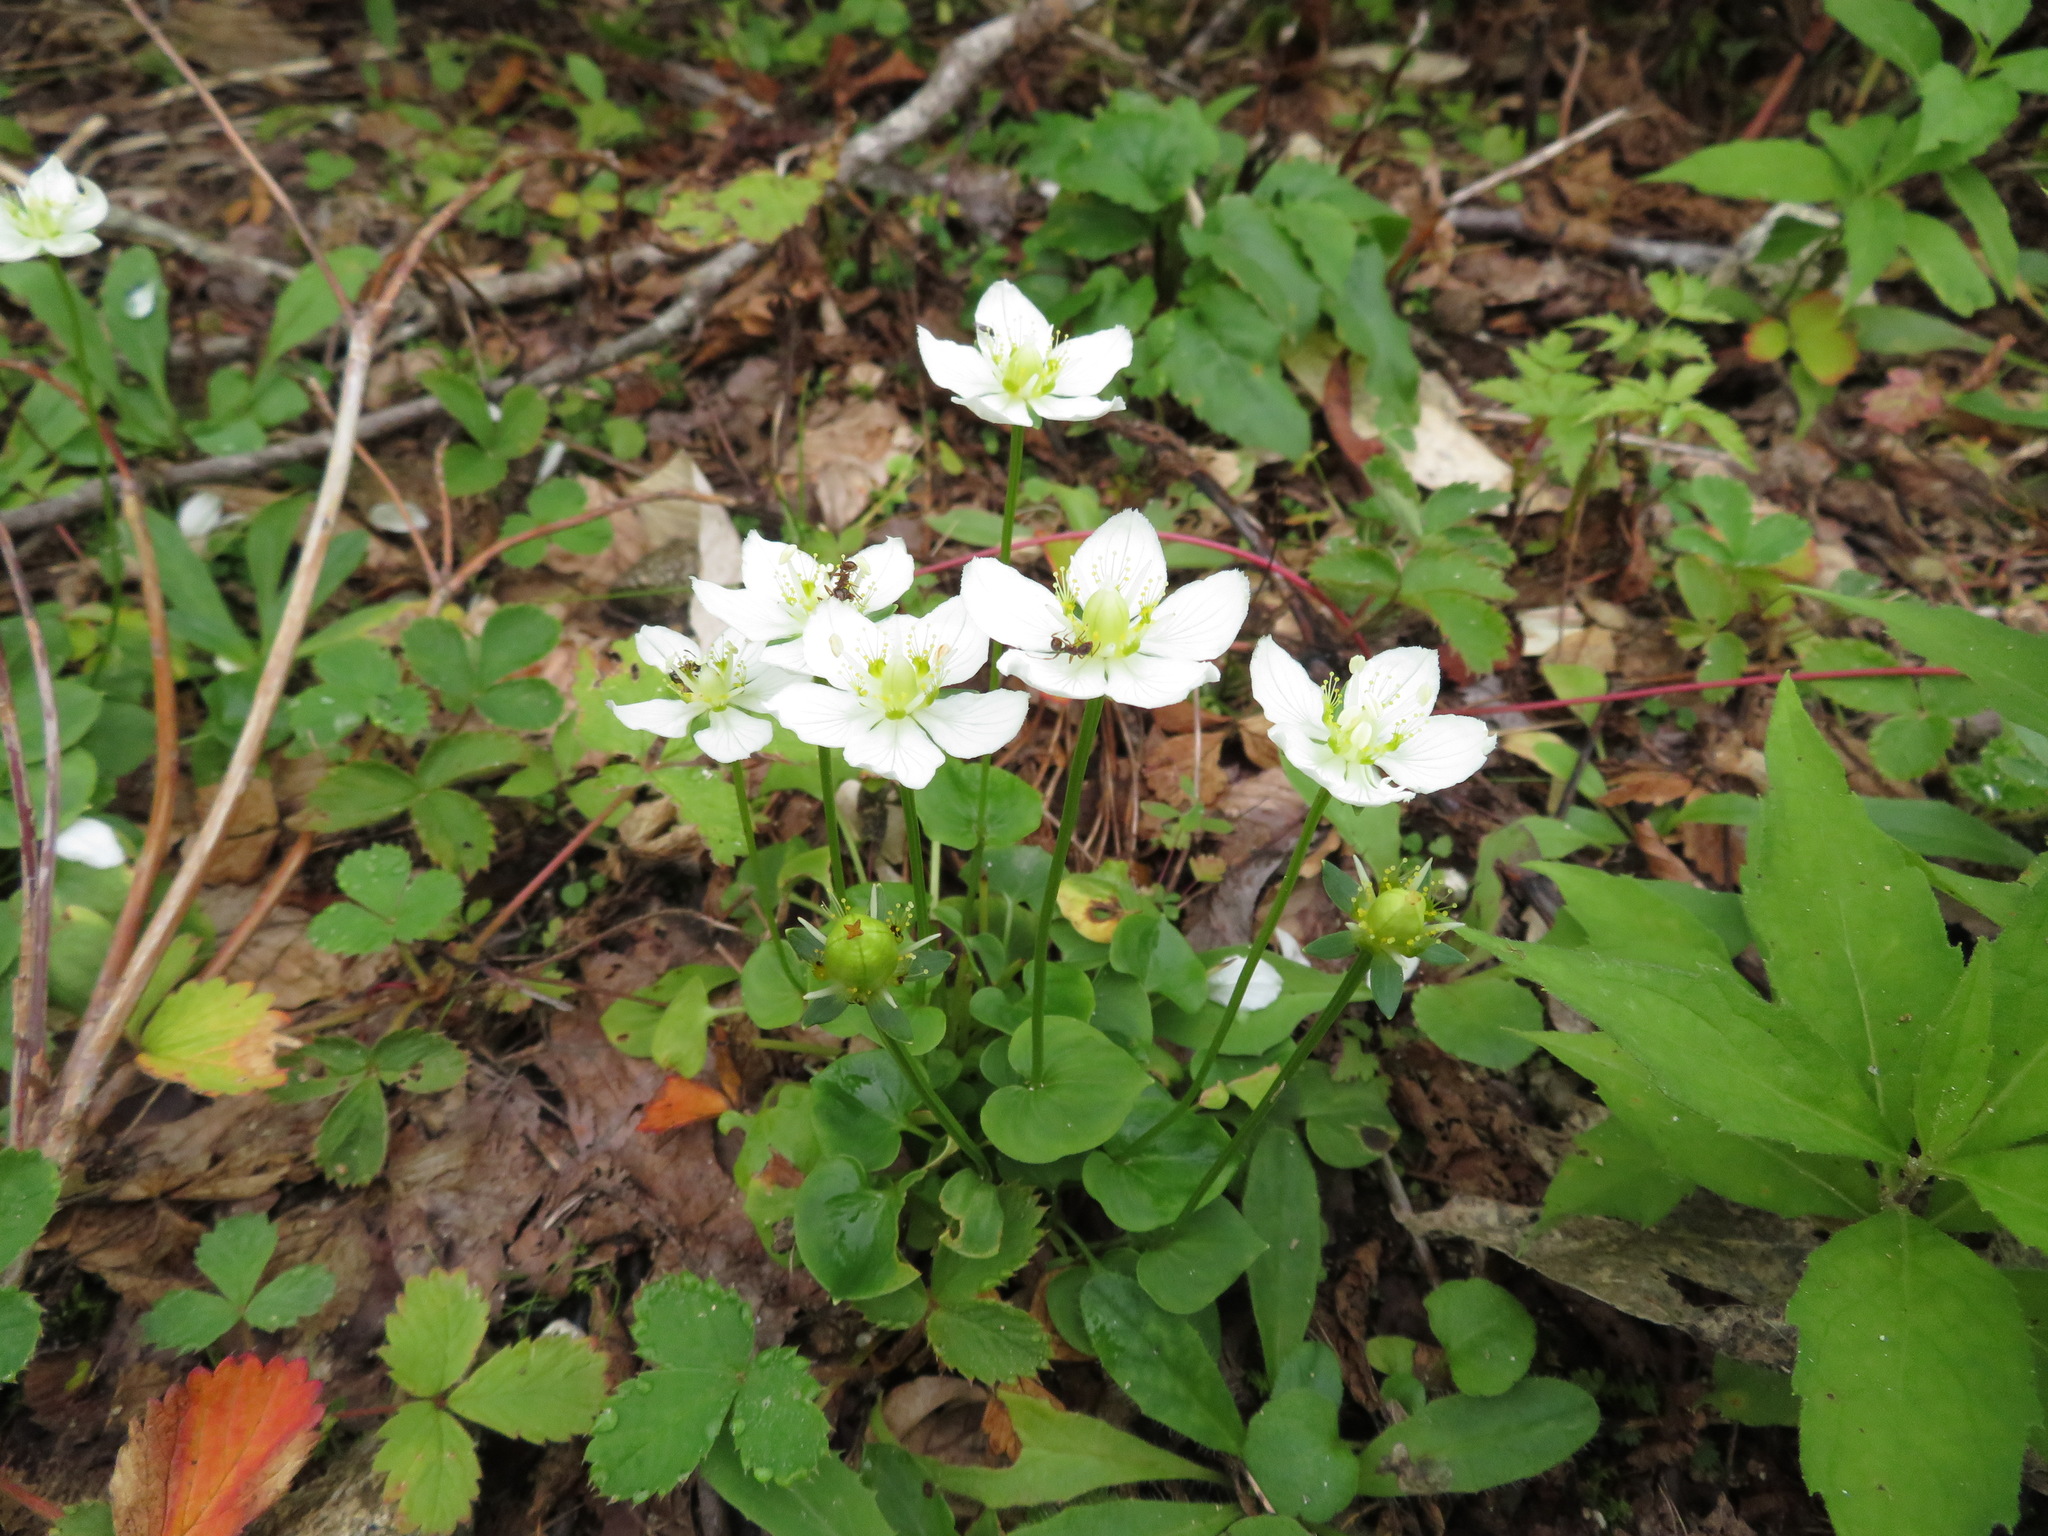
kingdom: Plantae
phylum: Tracheophyta
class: Magnoliopsida
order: Celastrales
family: Parnassiaceae
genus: Parnassia
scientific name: Parnassia palustris
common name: Grass-of-parnassus
